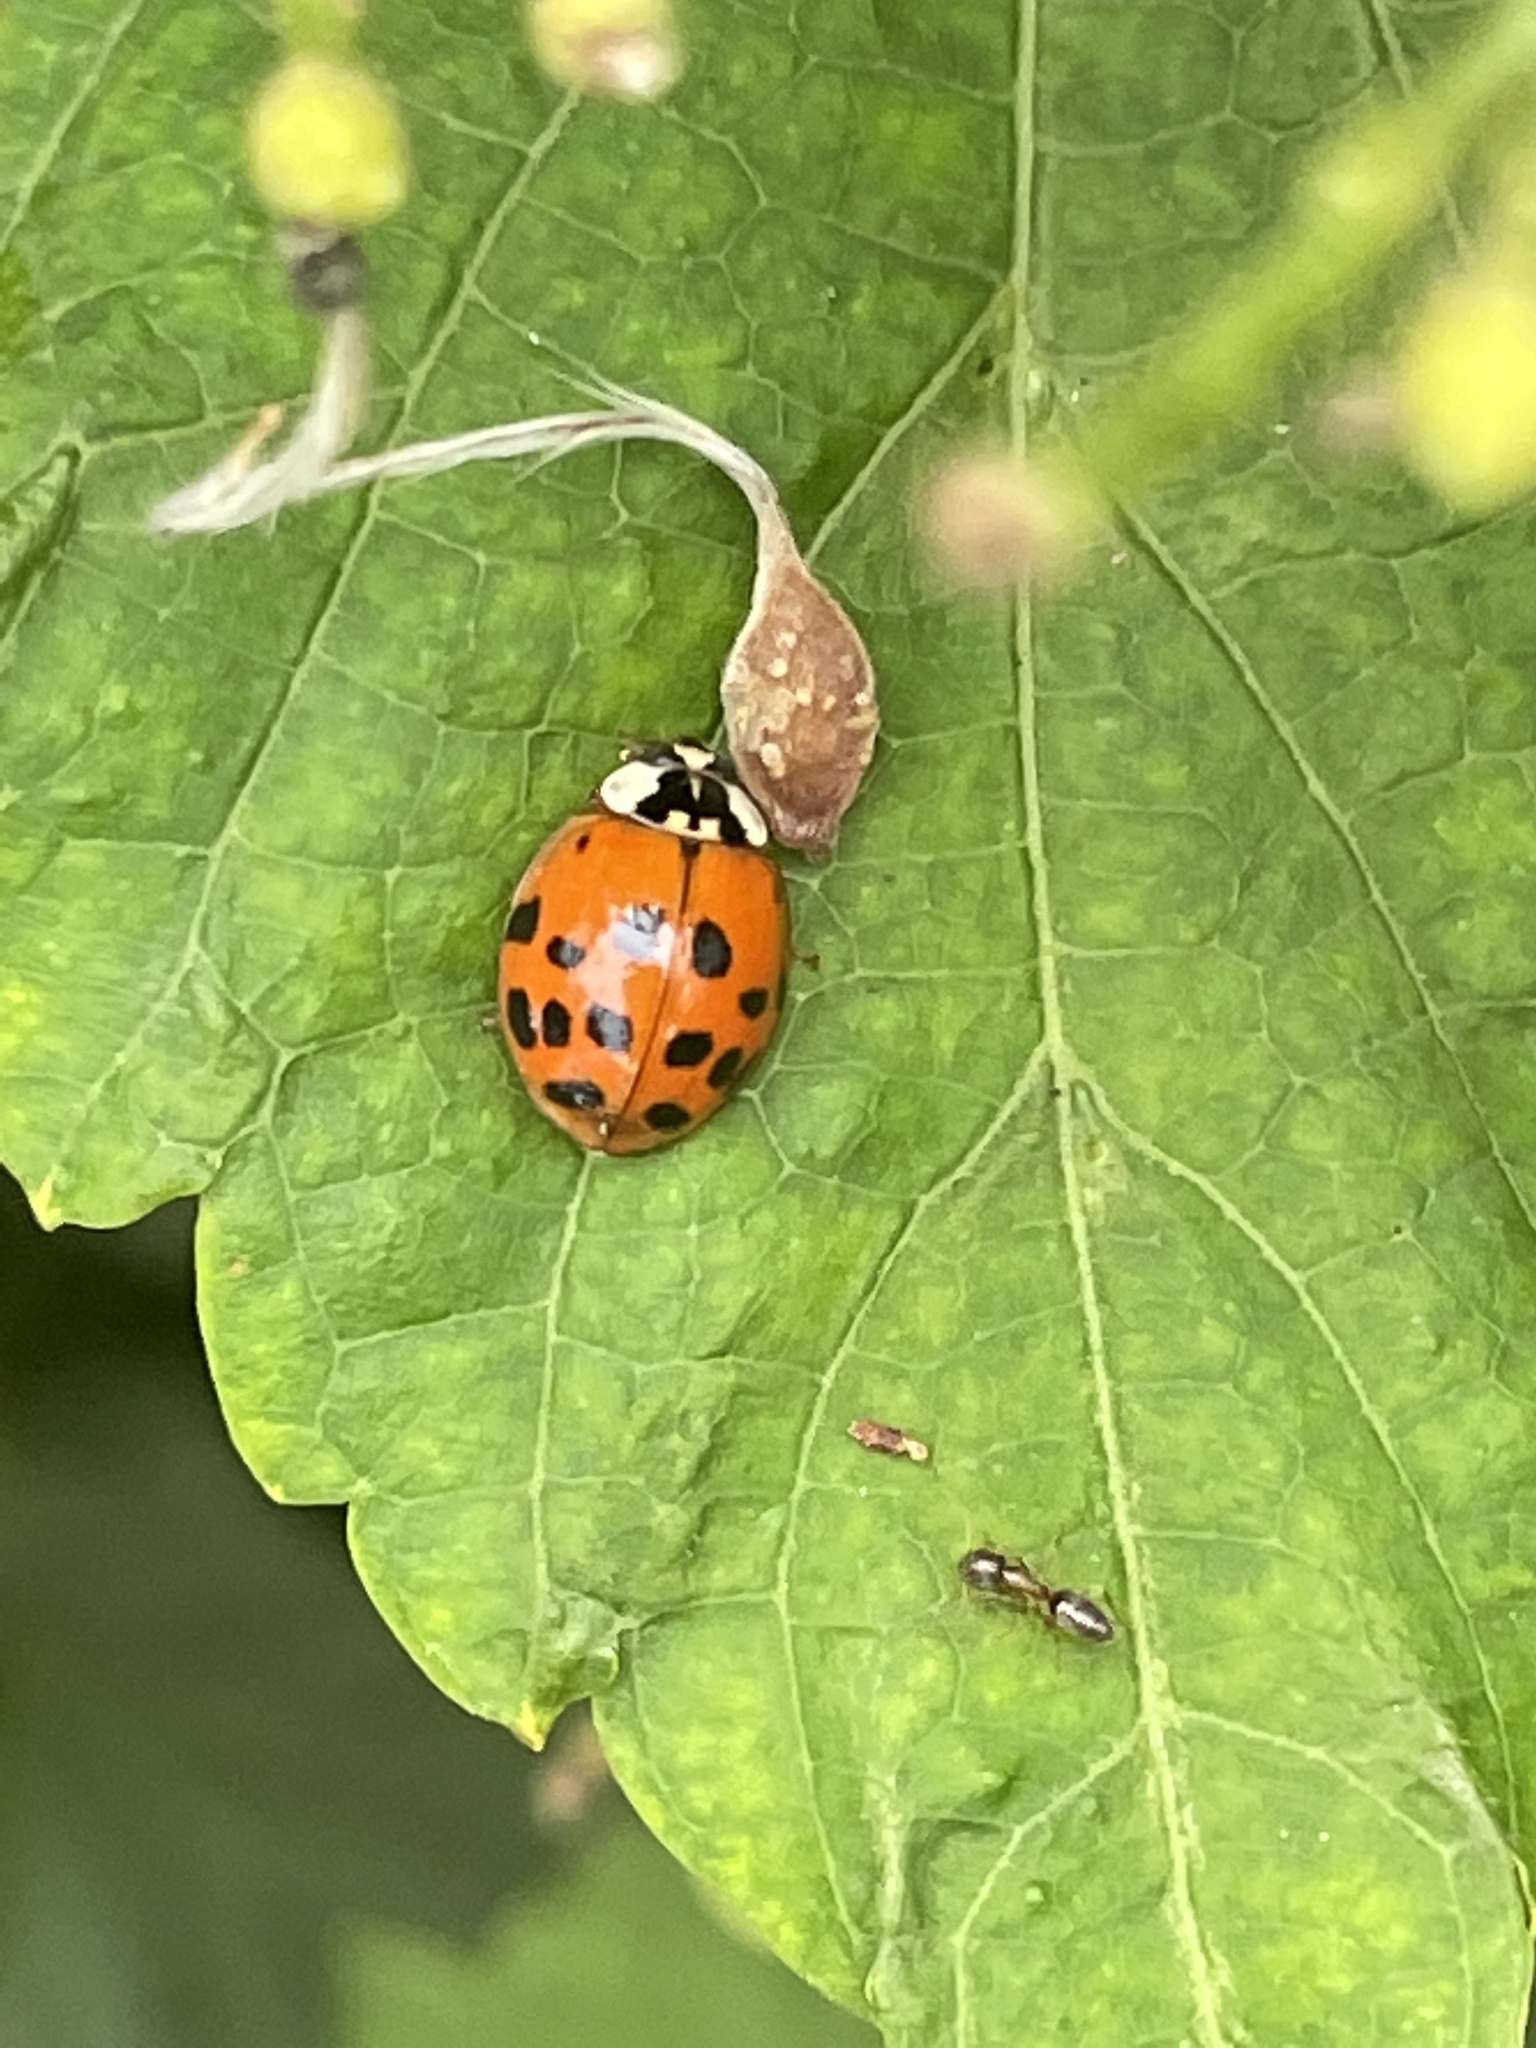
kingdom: Animalia
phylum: Arthropoda
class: Insecta
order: Coleoptera
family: Coccinellidae
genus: Harmonia
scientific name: Harmonia axyridis
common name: Harlequin ladybird
